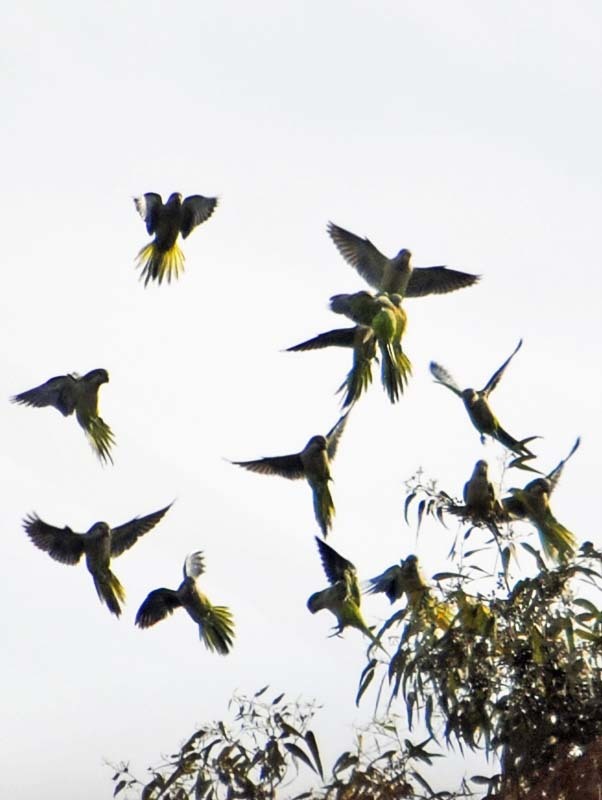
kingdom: Animalia
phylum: Chordata
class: Aves
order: Psittaciformes
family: Psittacidae
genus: Myiopsitta
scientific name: Myiopsitta monachus
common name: Monk parakeet
